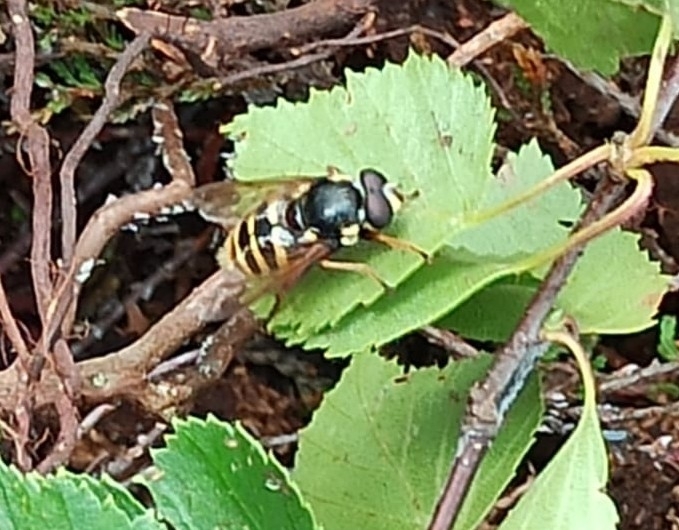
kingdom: Animalia
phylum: Arthropoda
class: Insecta
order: Diptera
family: Syrphidae
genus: Sericomyia
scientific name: Sericomyia silentis
